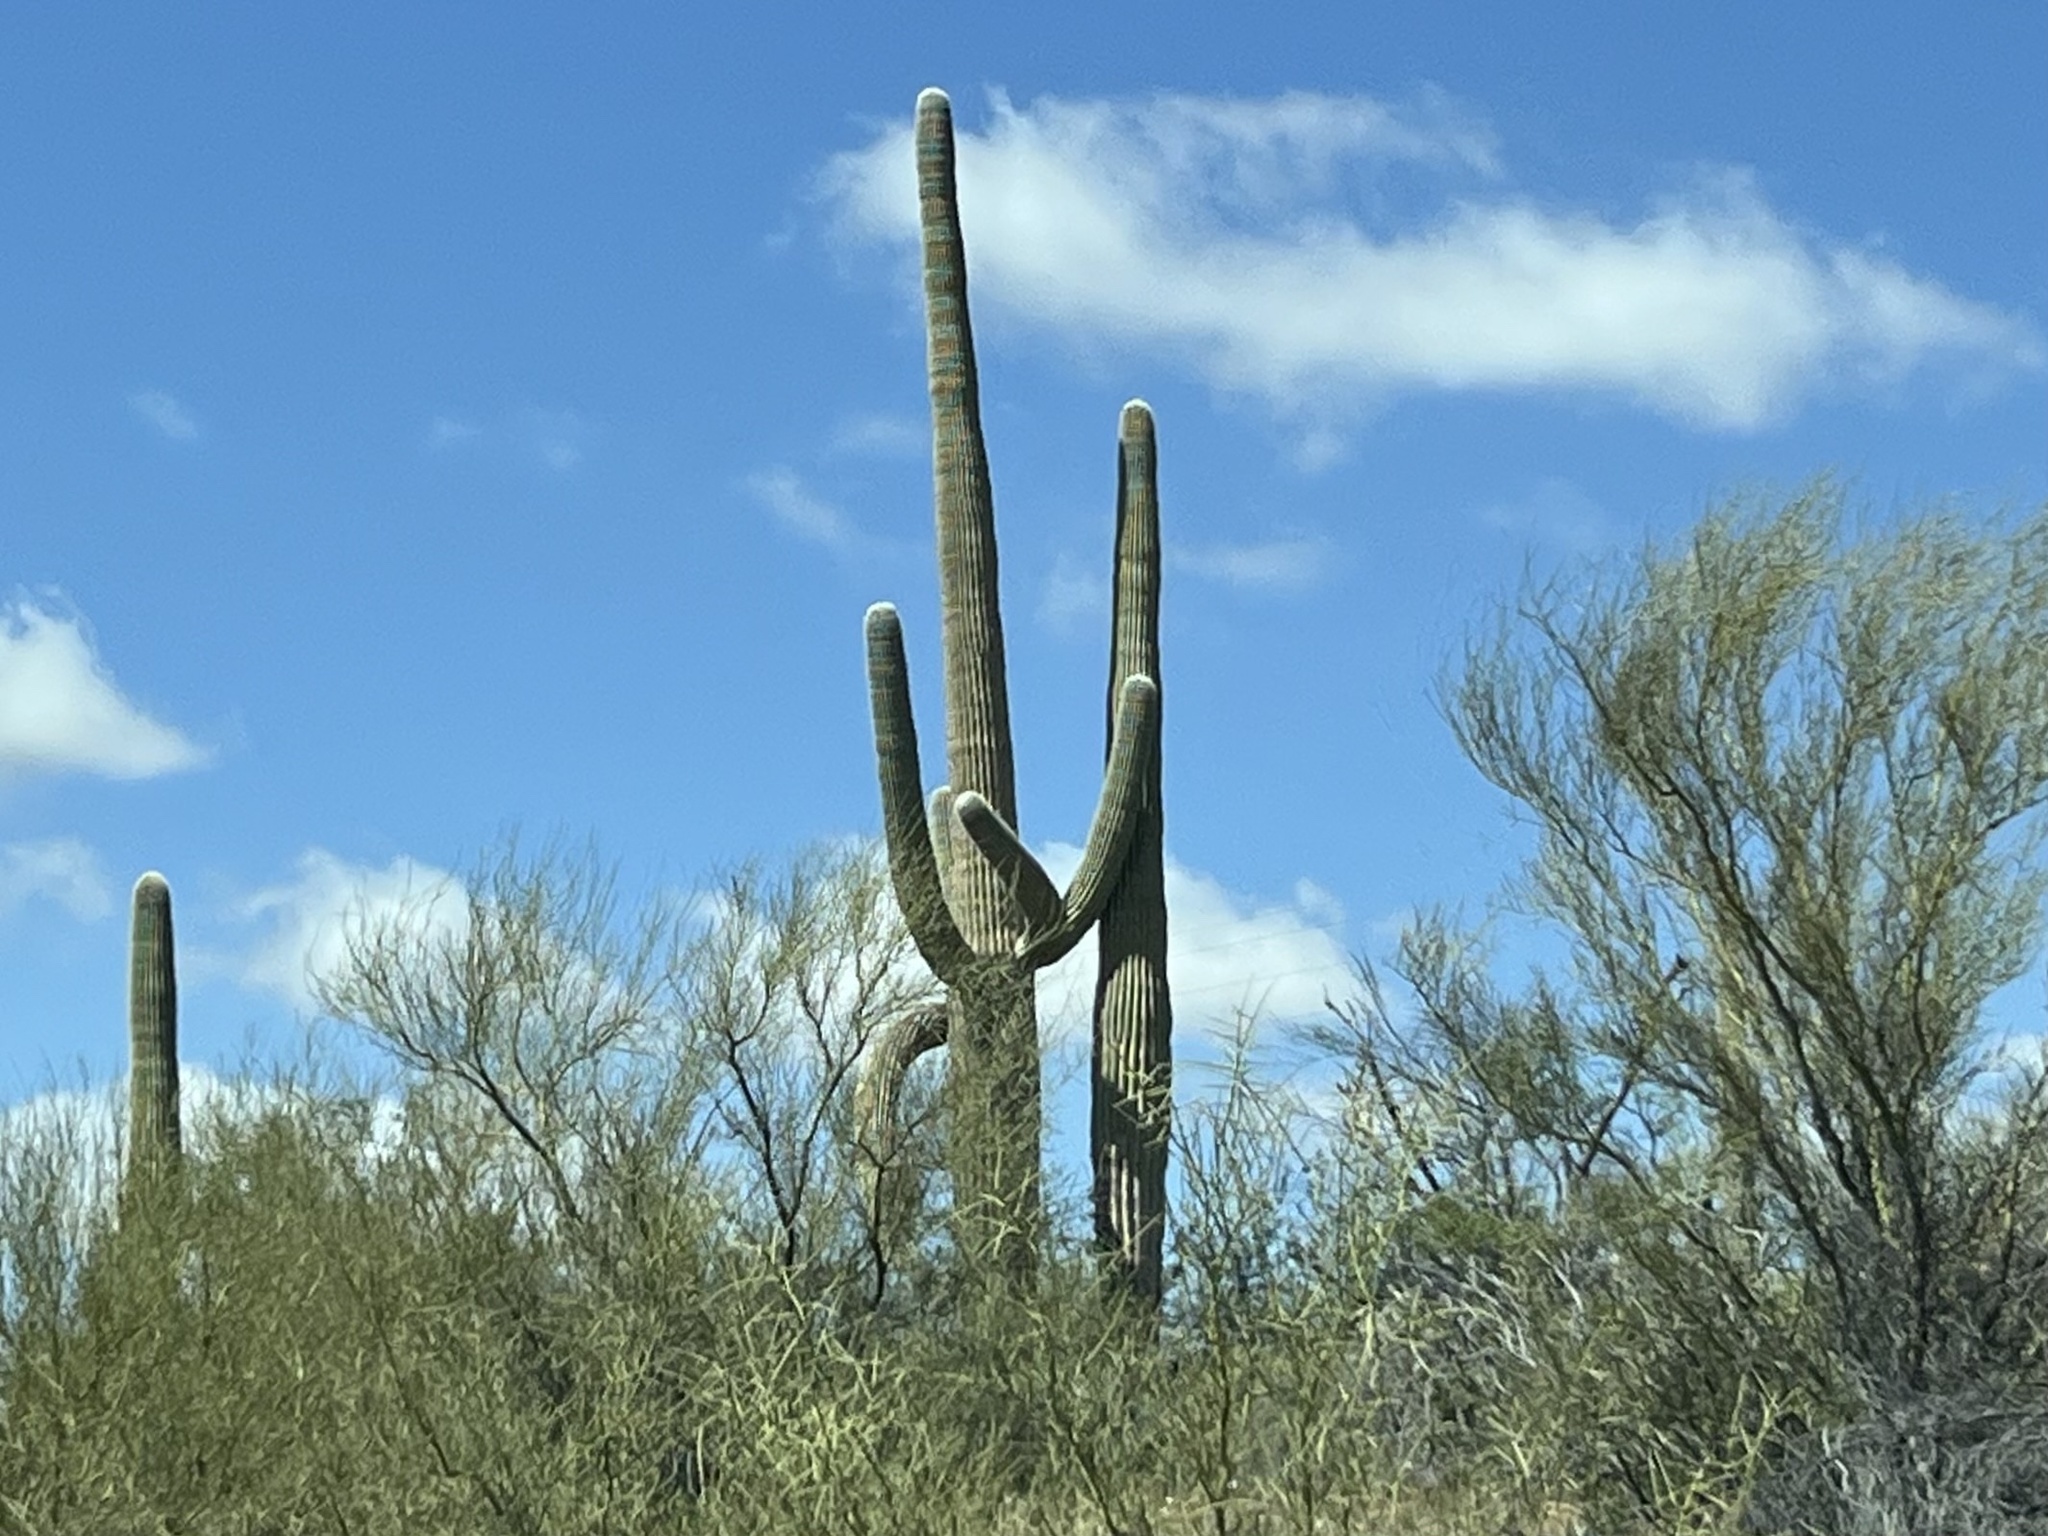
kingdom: Plantae
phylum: Tracheophyta
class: Magnoliopsida
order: Caryophyllales
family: Cactaceae
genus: Carnegiea
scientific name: Carnegiea gigantea
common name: Saguaro
